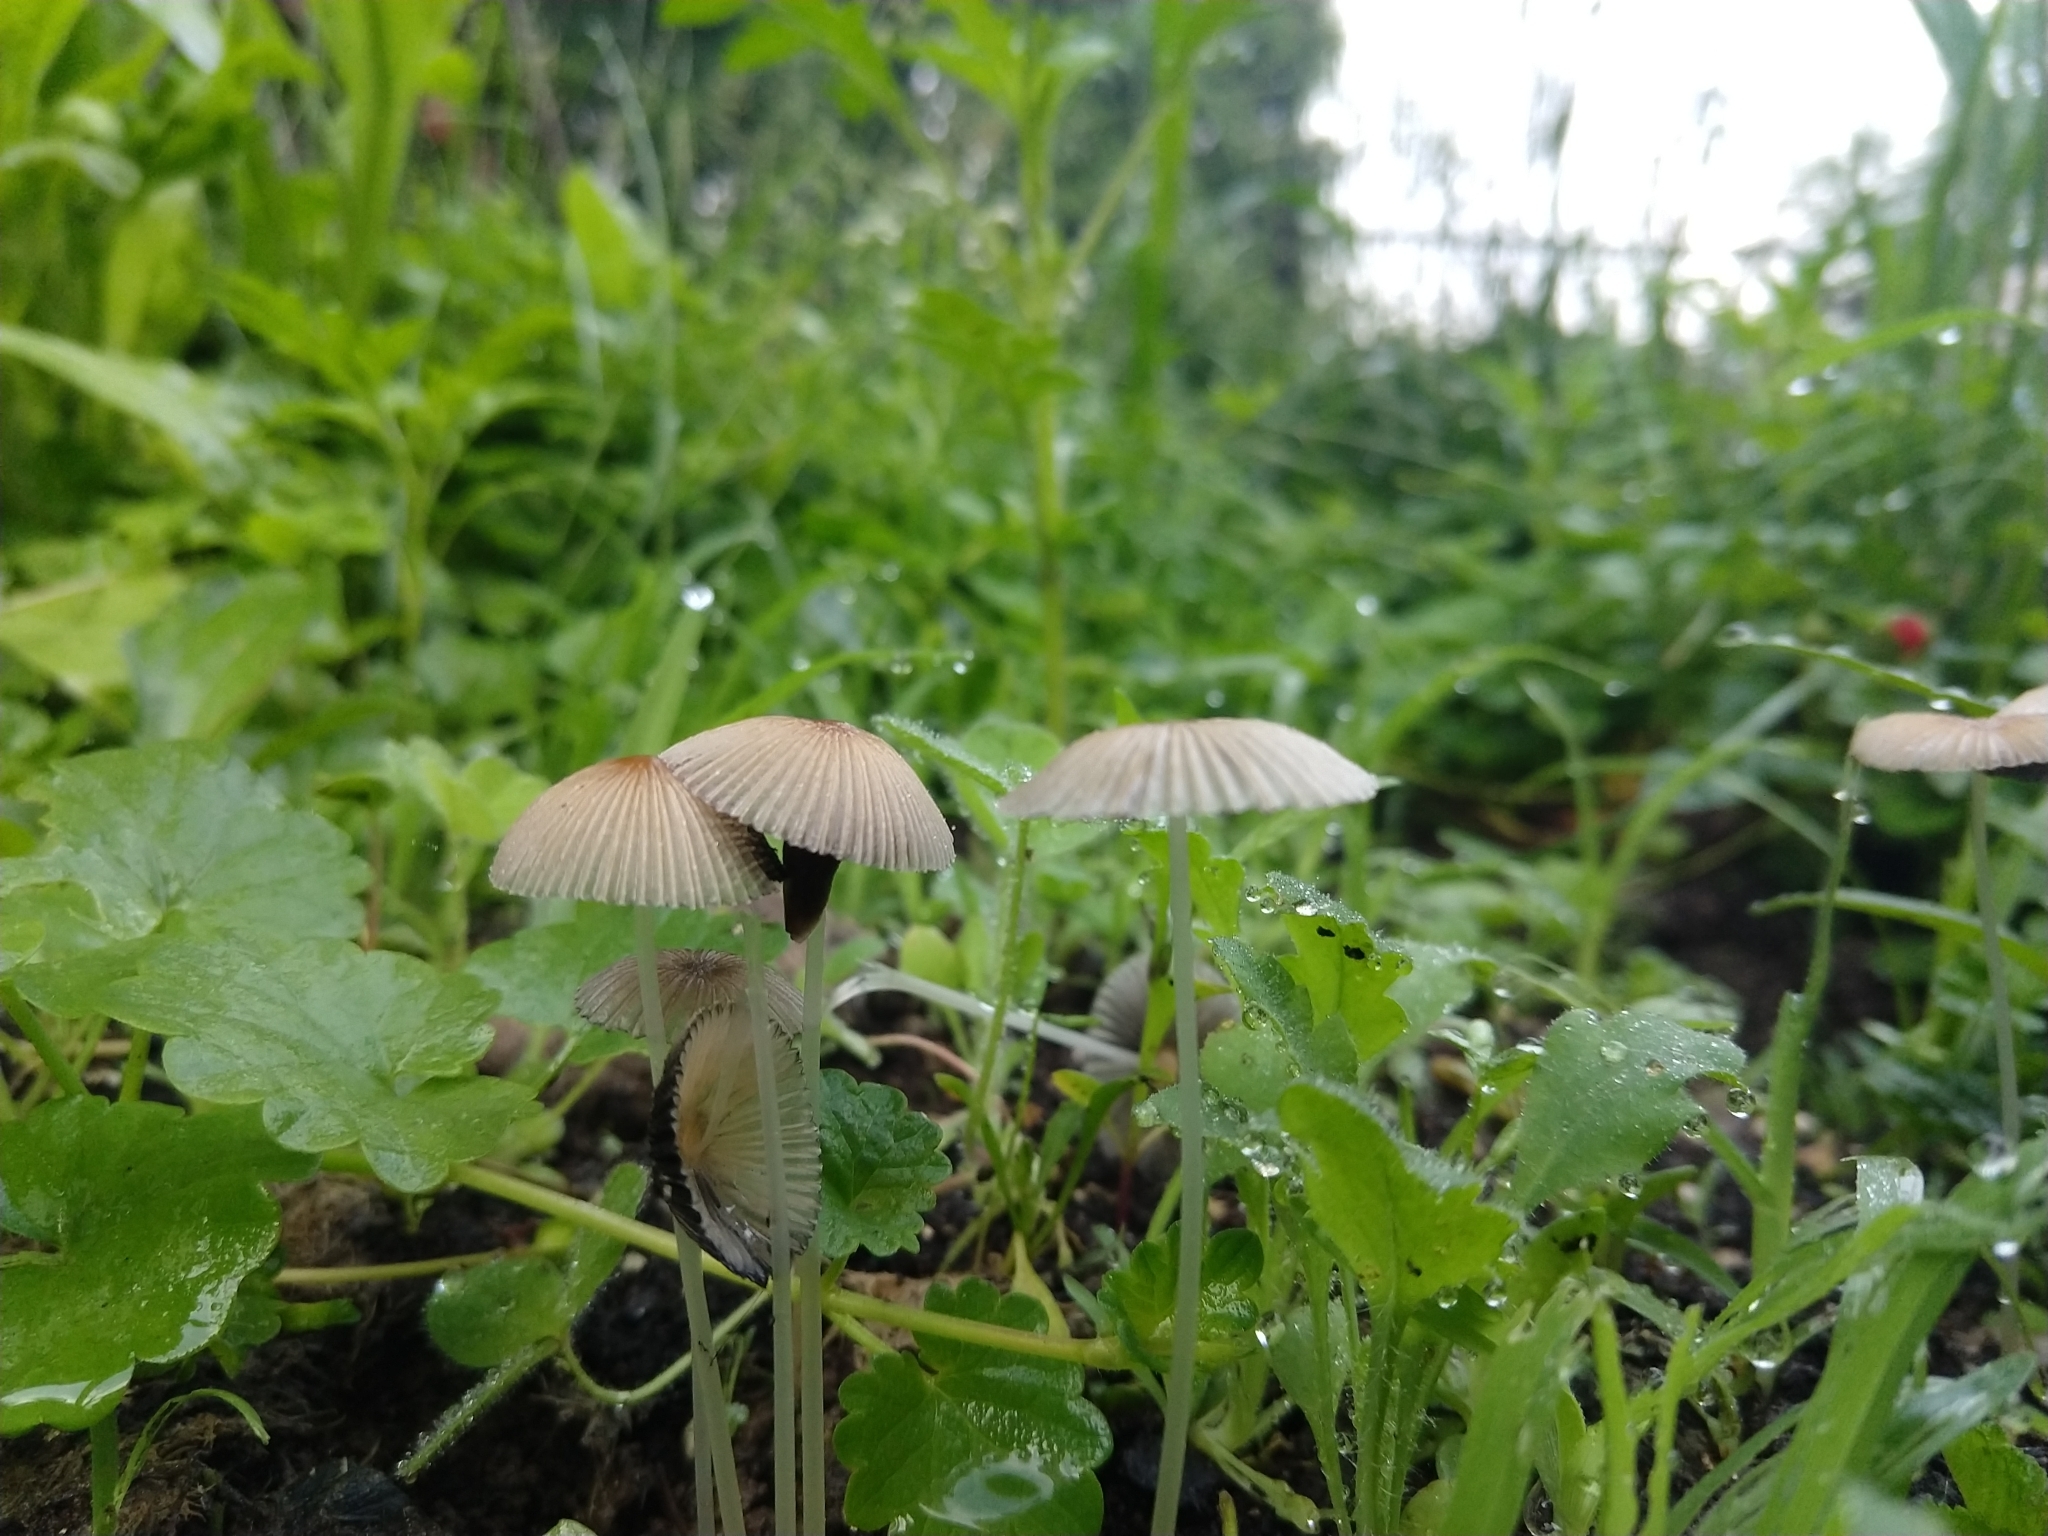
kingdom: Fungi
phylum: Basidiomycota
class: Agaricomycetes
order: Agaricales
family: Psathyrellaceae
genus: Parasola
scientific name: Parasola plicatilis
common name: Pleated inkcap
